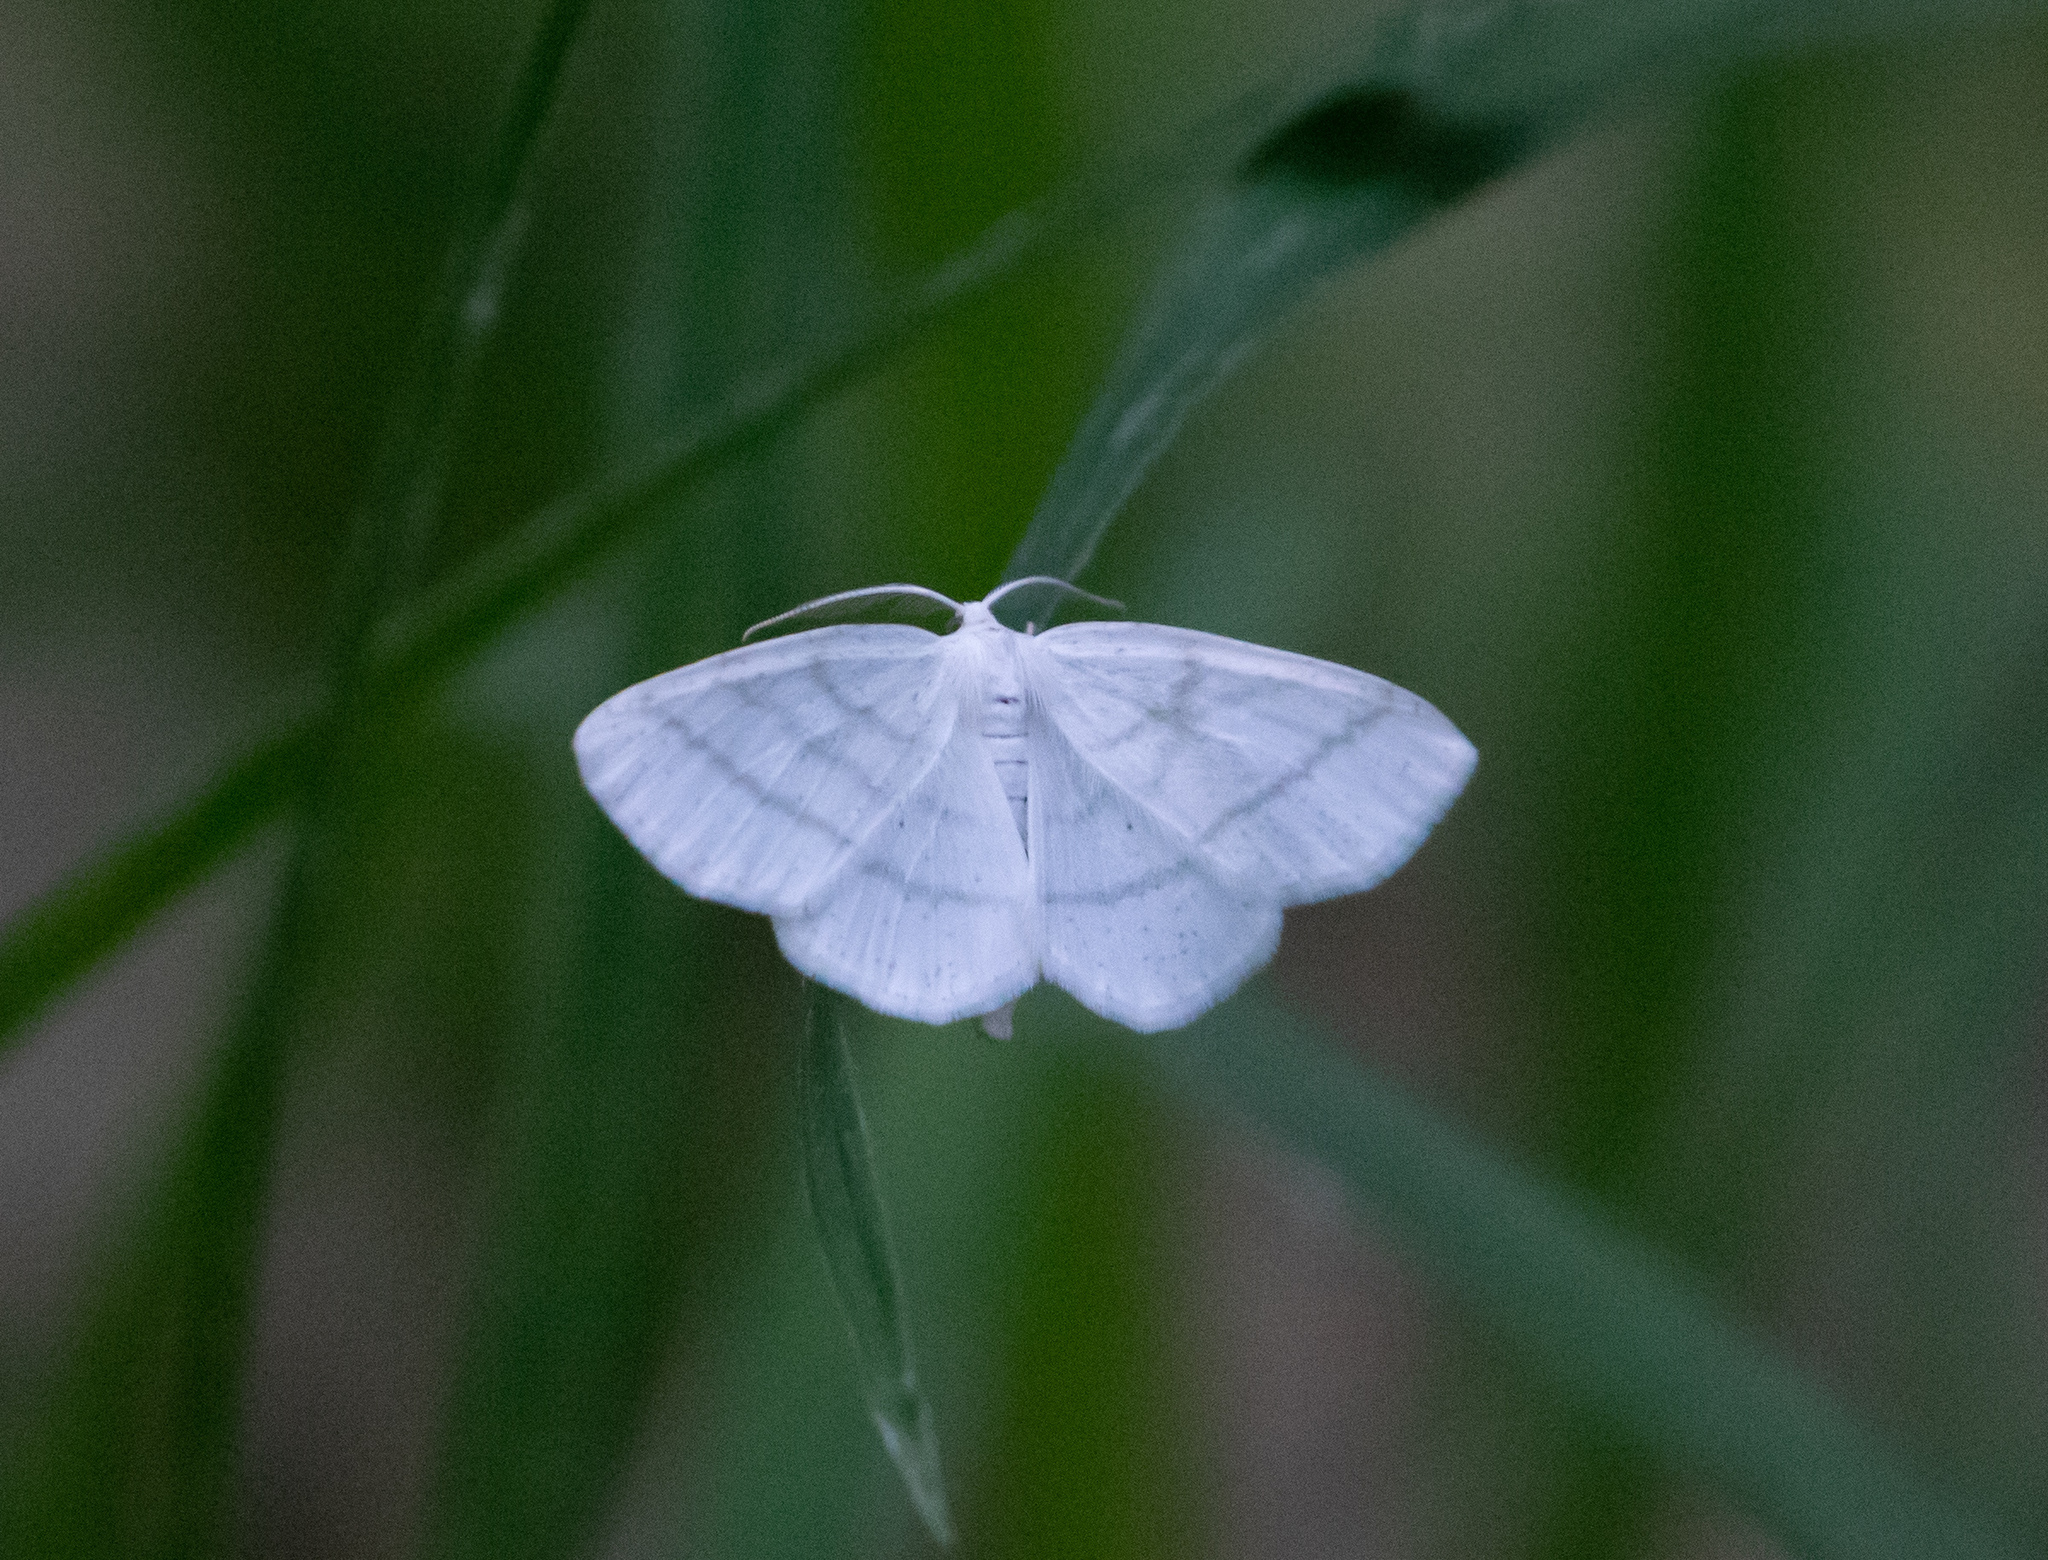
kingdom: Animalia
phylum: Arthropoda
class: Insecta
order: Lepidoptera
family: Geometridae
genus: Cabera
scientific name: Cabera pusaria
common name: Common white wave
